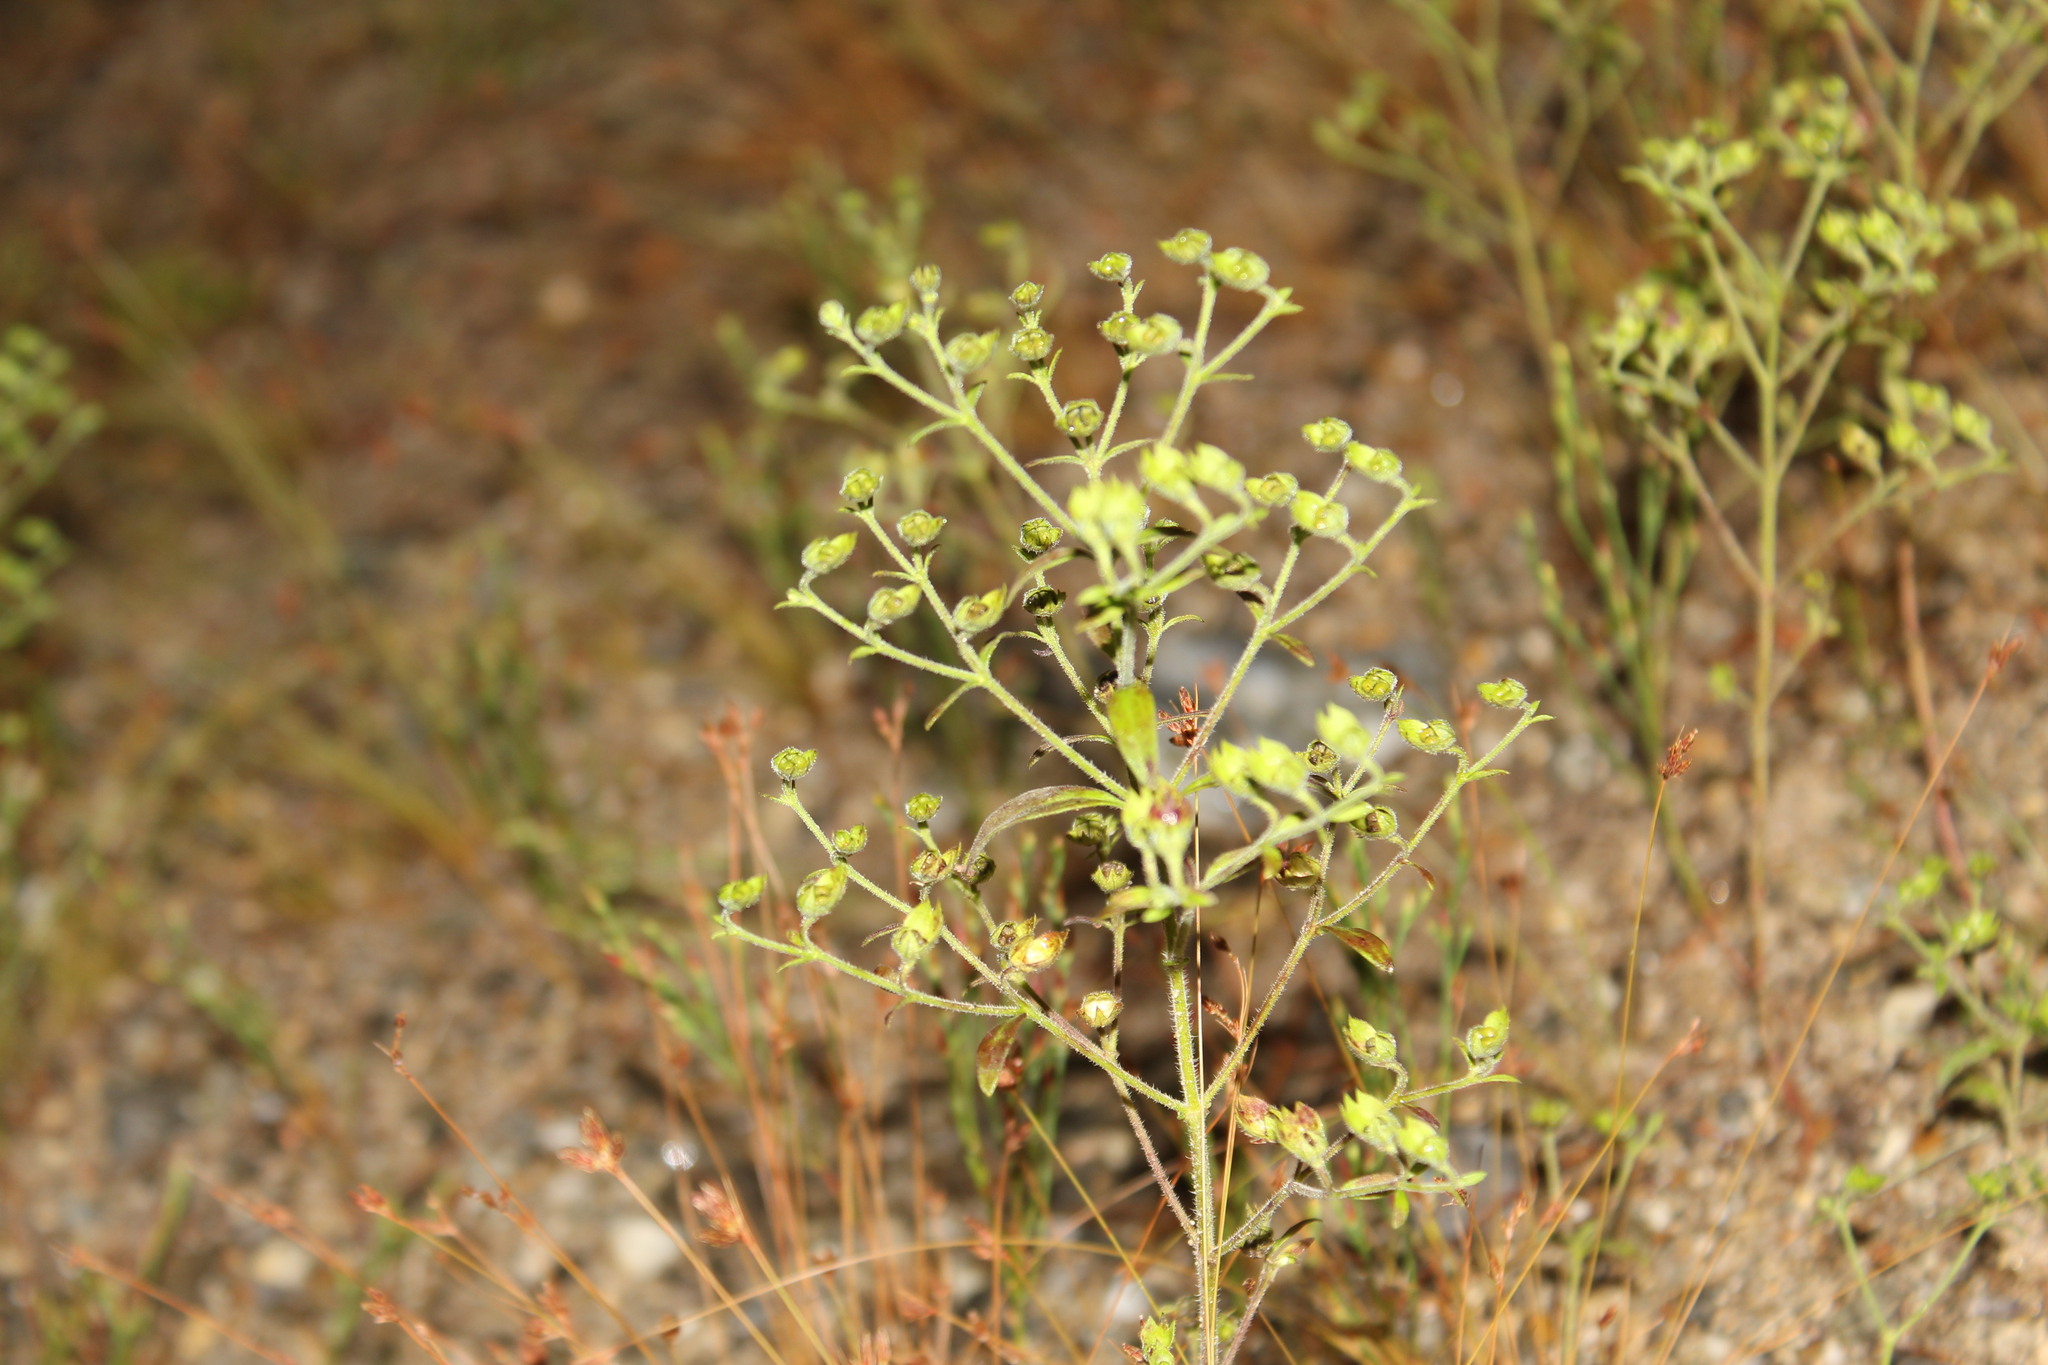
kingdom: Plantae
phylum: Tracheophyta
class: Magnoliopsida
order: Lamiales
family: Lamiaceae
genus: Trichostema
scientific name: Trichostema dichotomum
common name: Bastard pennyroyal
